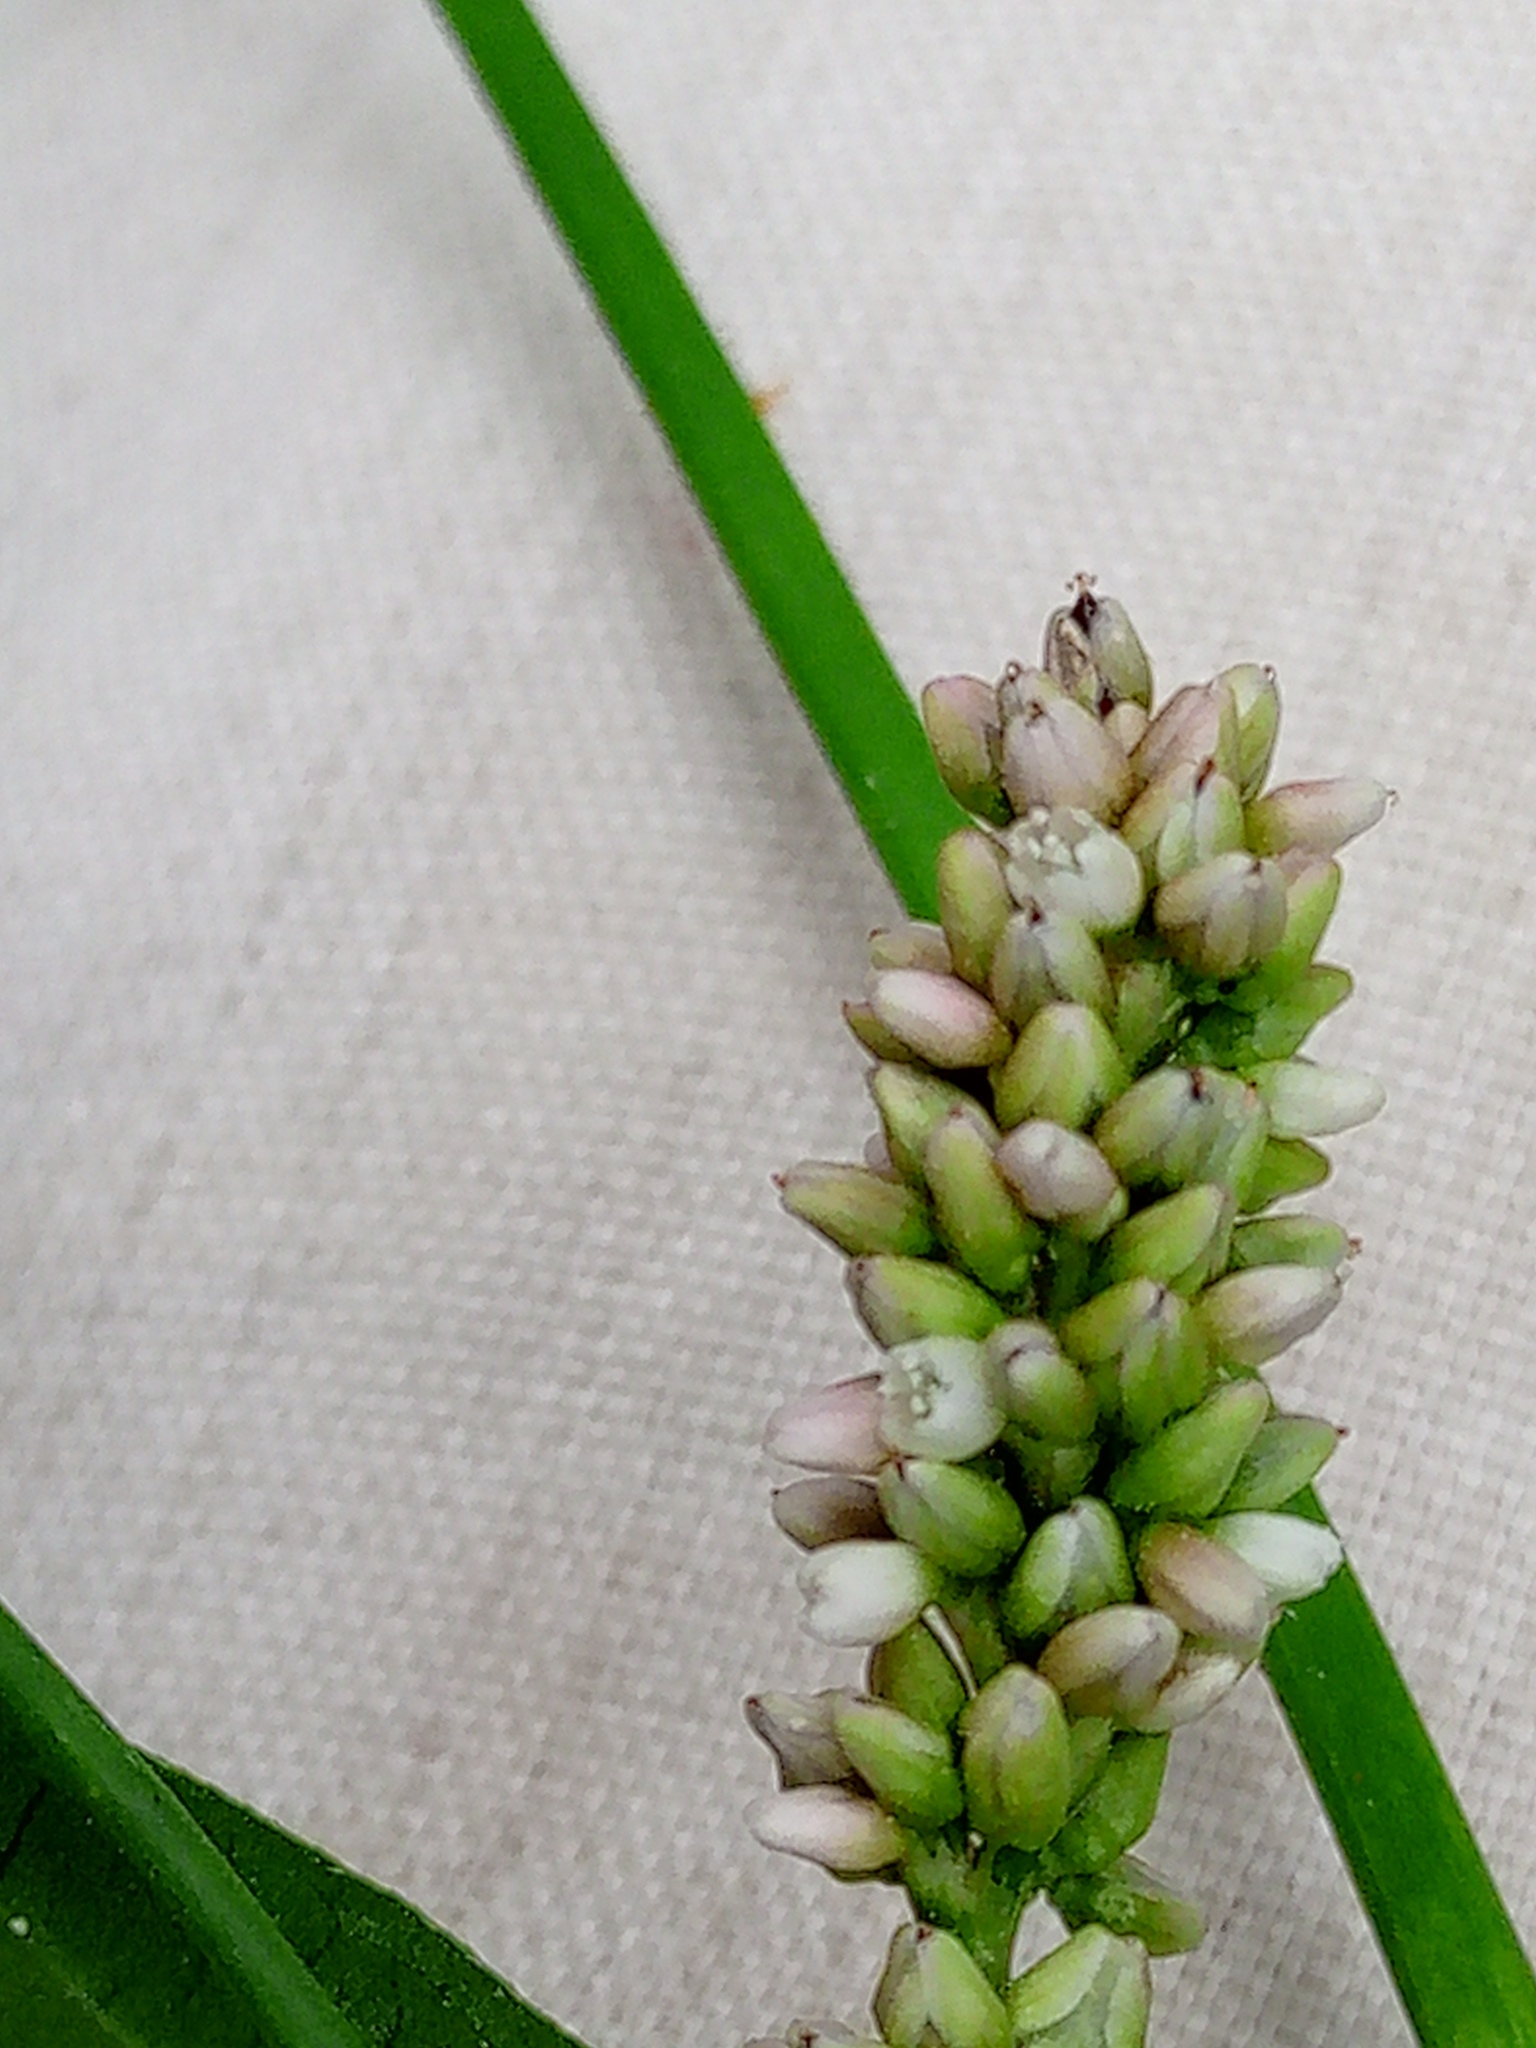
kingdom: Plantae
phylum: Tracheophyta
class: Magnoliopsida
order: Caryophyllales
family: Polygonaceae
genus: Persicaria
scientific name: Persicaria maculosa
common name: Redshank
